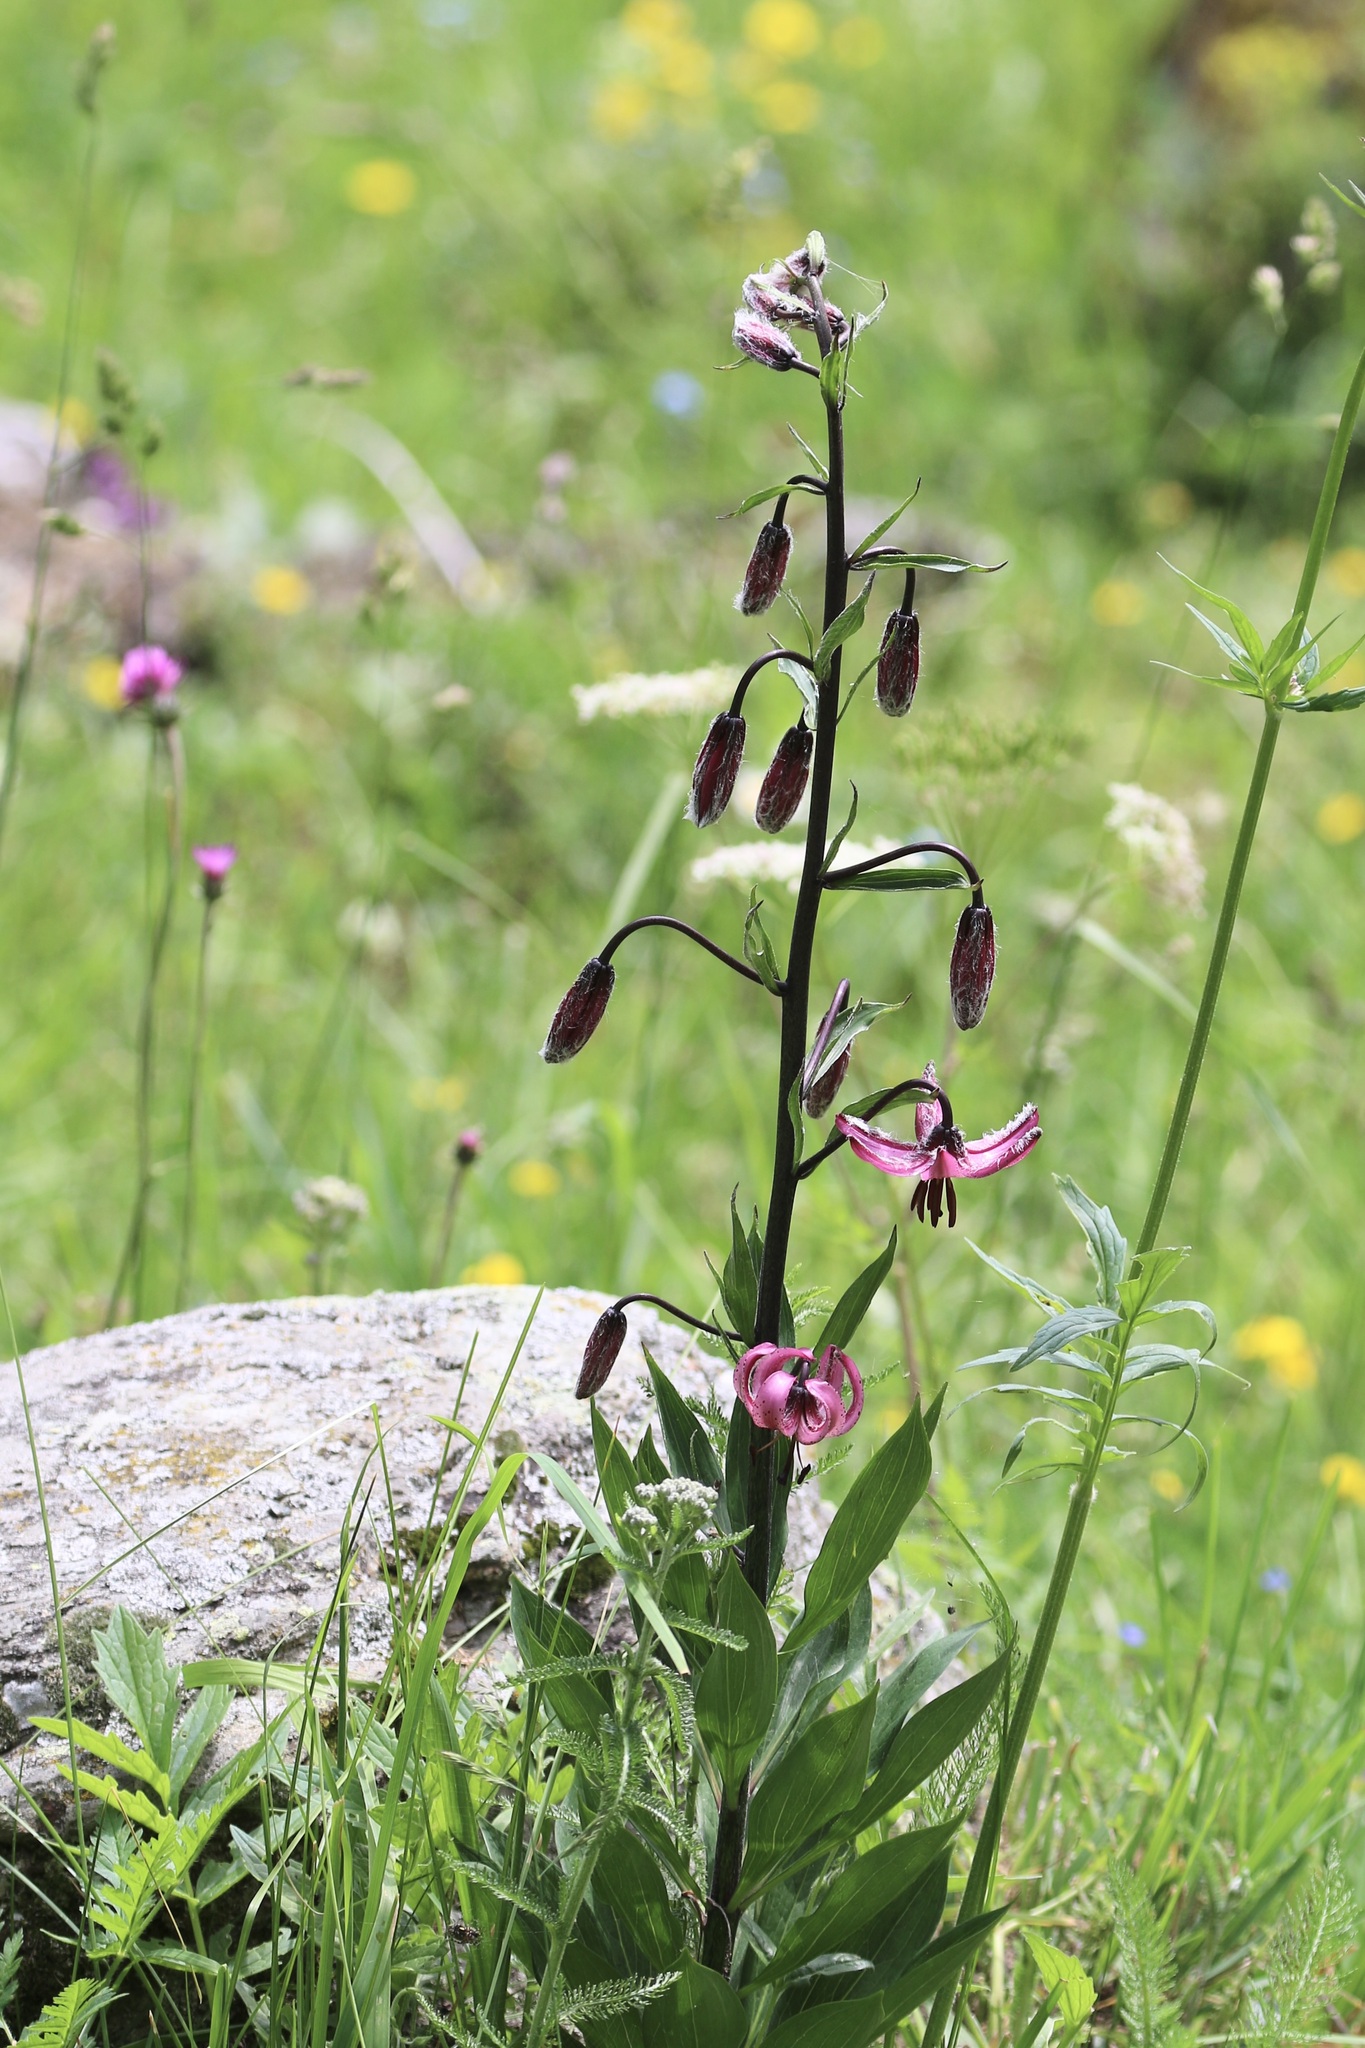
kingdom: Plantae
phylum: Tracheophyta
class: Liliopsida
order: Liliales
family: Liliaceae
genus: Lilium
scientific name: Lilium martagon
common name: Martagon lily
